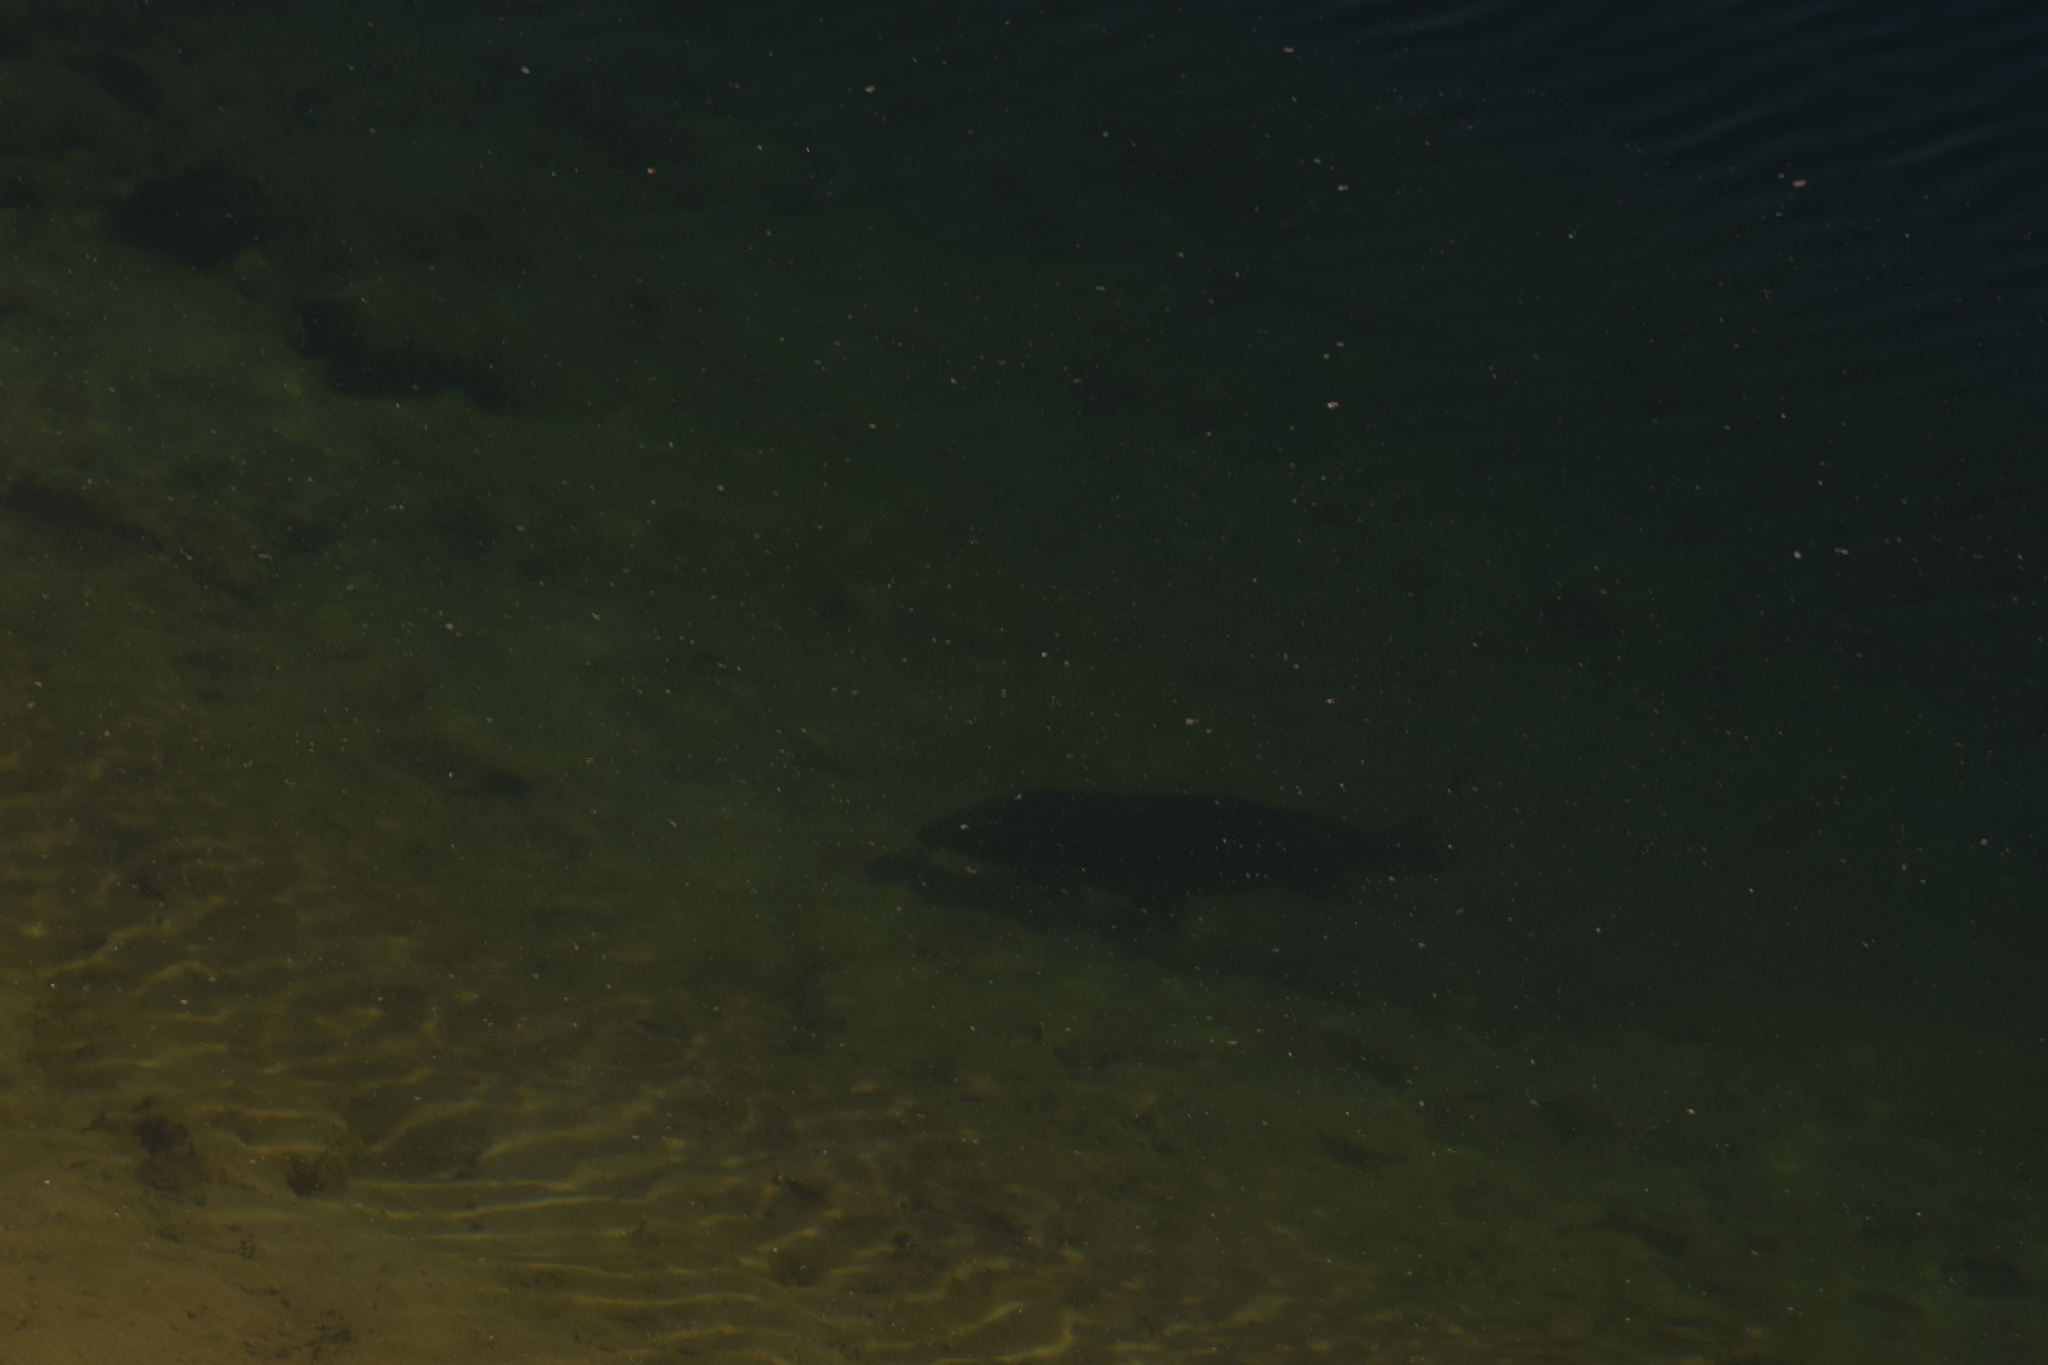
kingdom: Animalia
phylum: Chordata
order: Cypriniformes
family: Cyprinidae
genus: Cyprinus
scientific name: Cyprinus carpio
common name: Common carp
